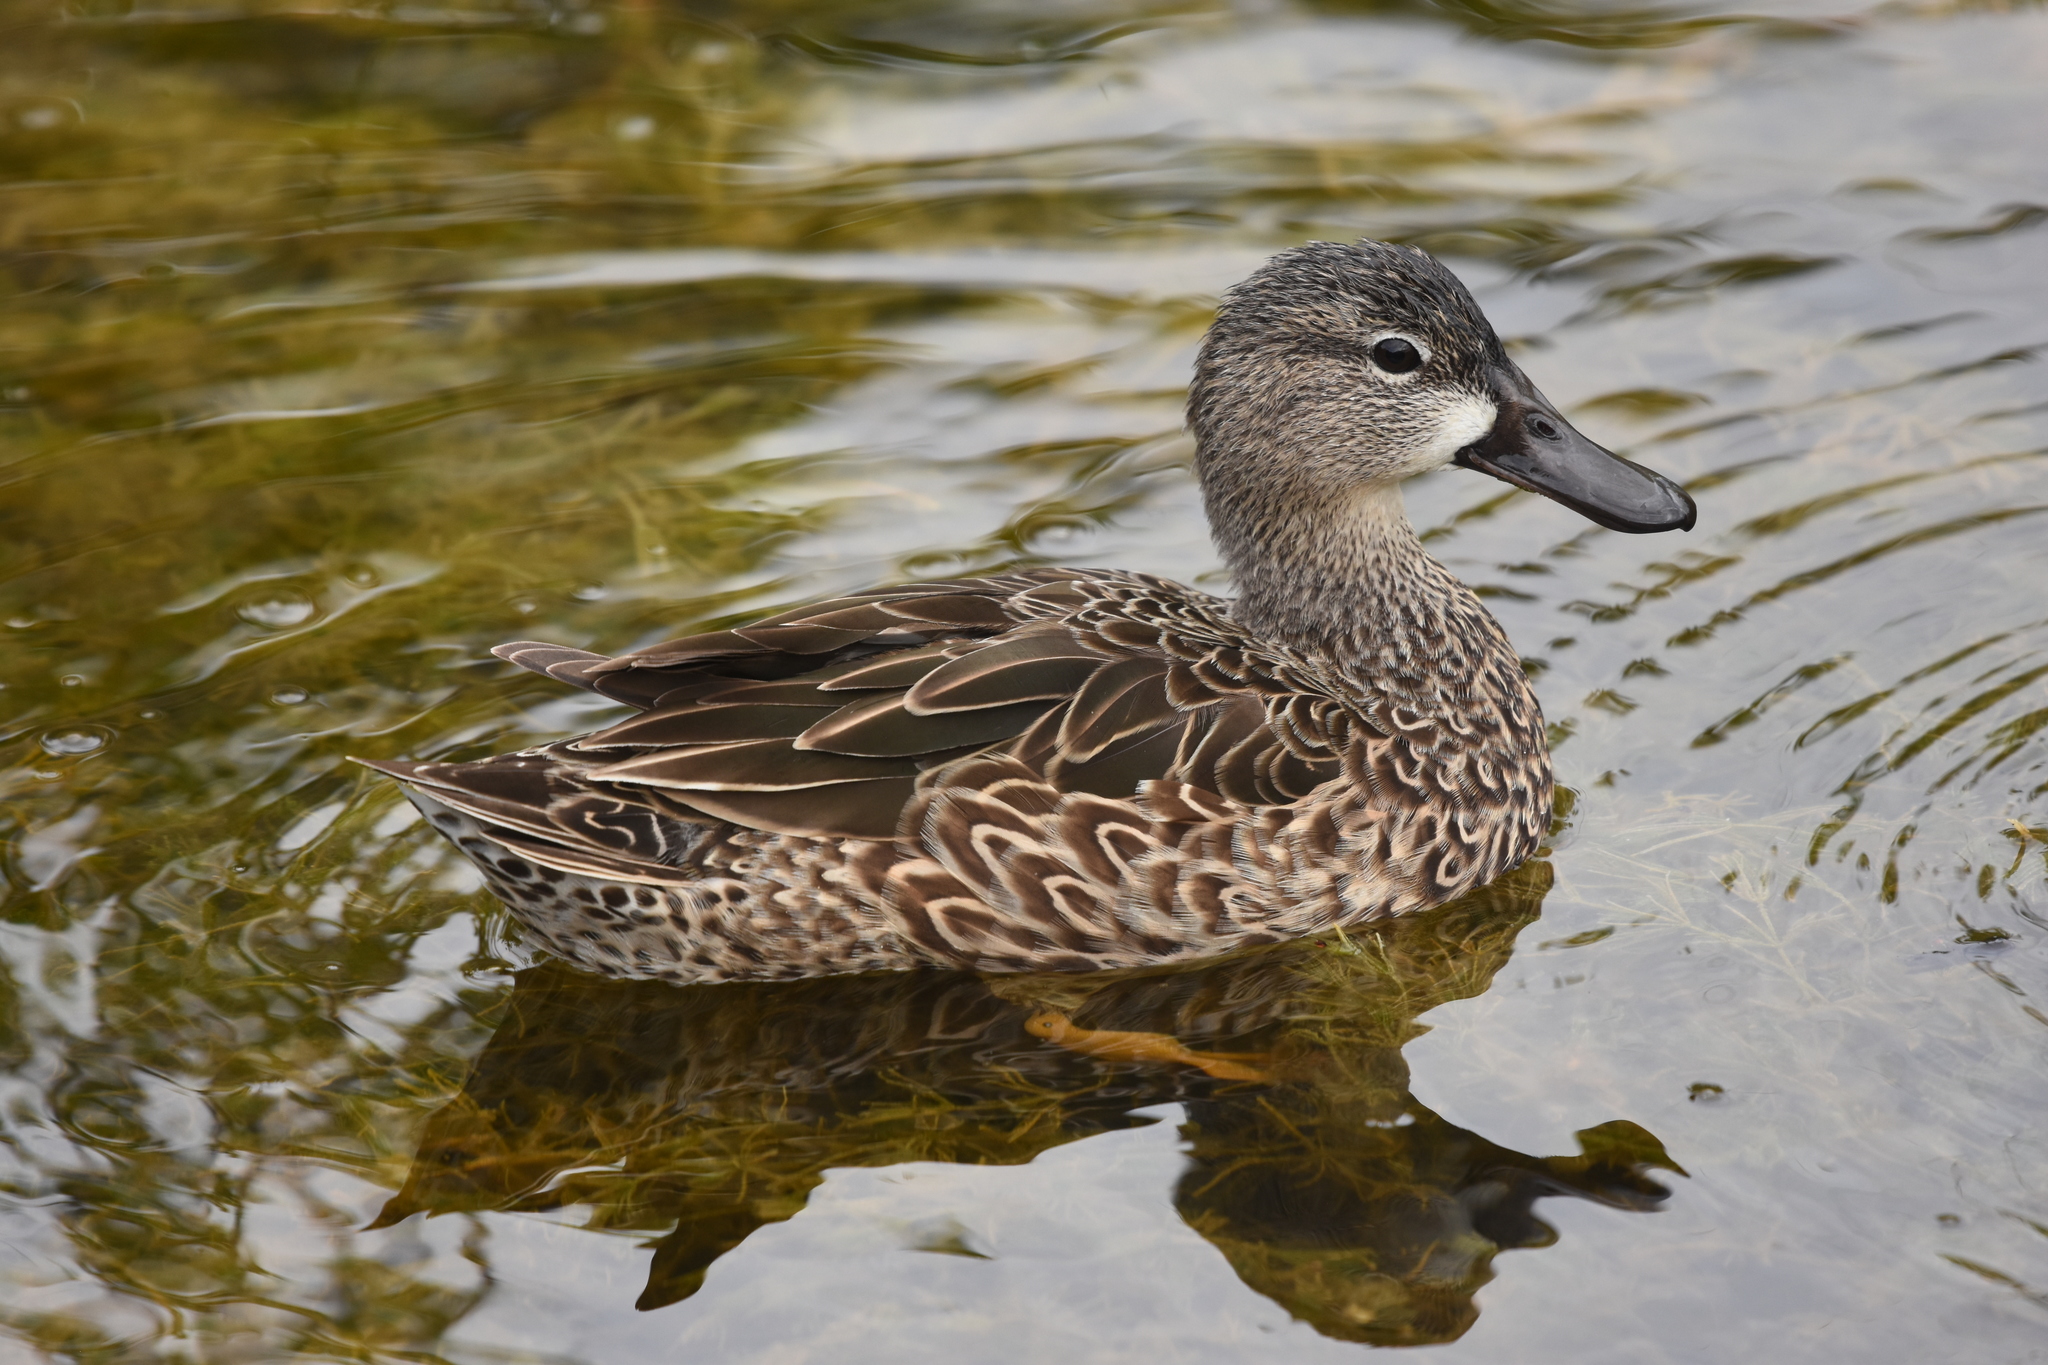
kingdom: Animalia
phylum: Chordata
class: Aves
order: Anseriformes
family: Anatidae
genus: Spatula
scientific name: Spatula discors
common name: Blue-winged teal
